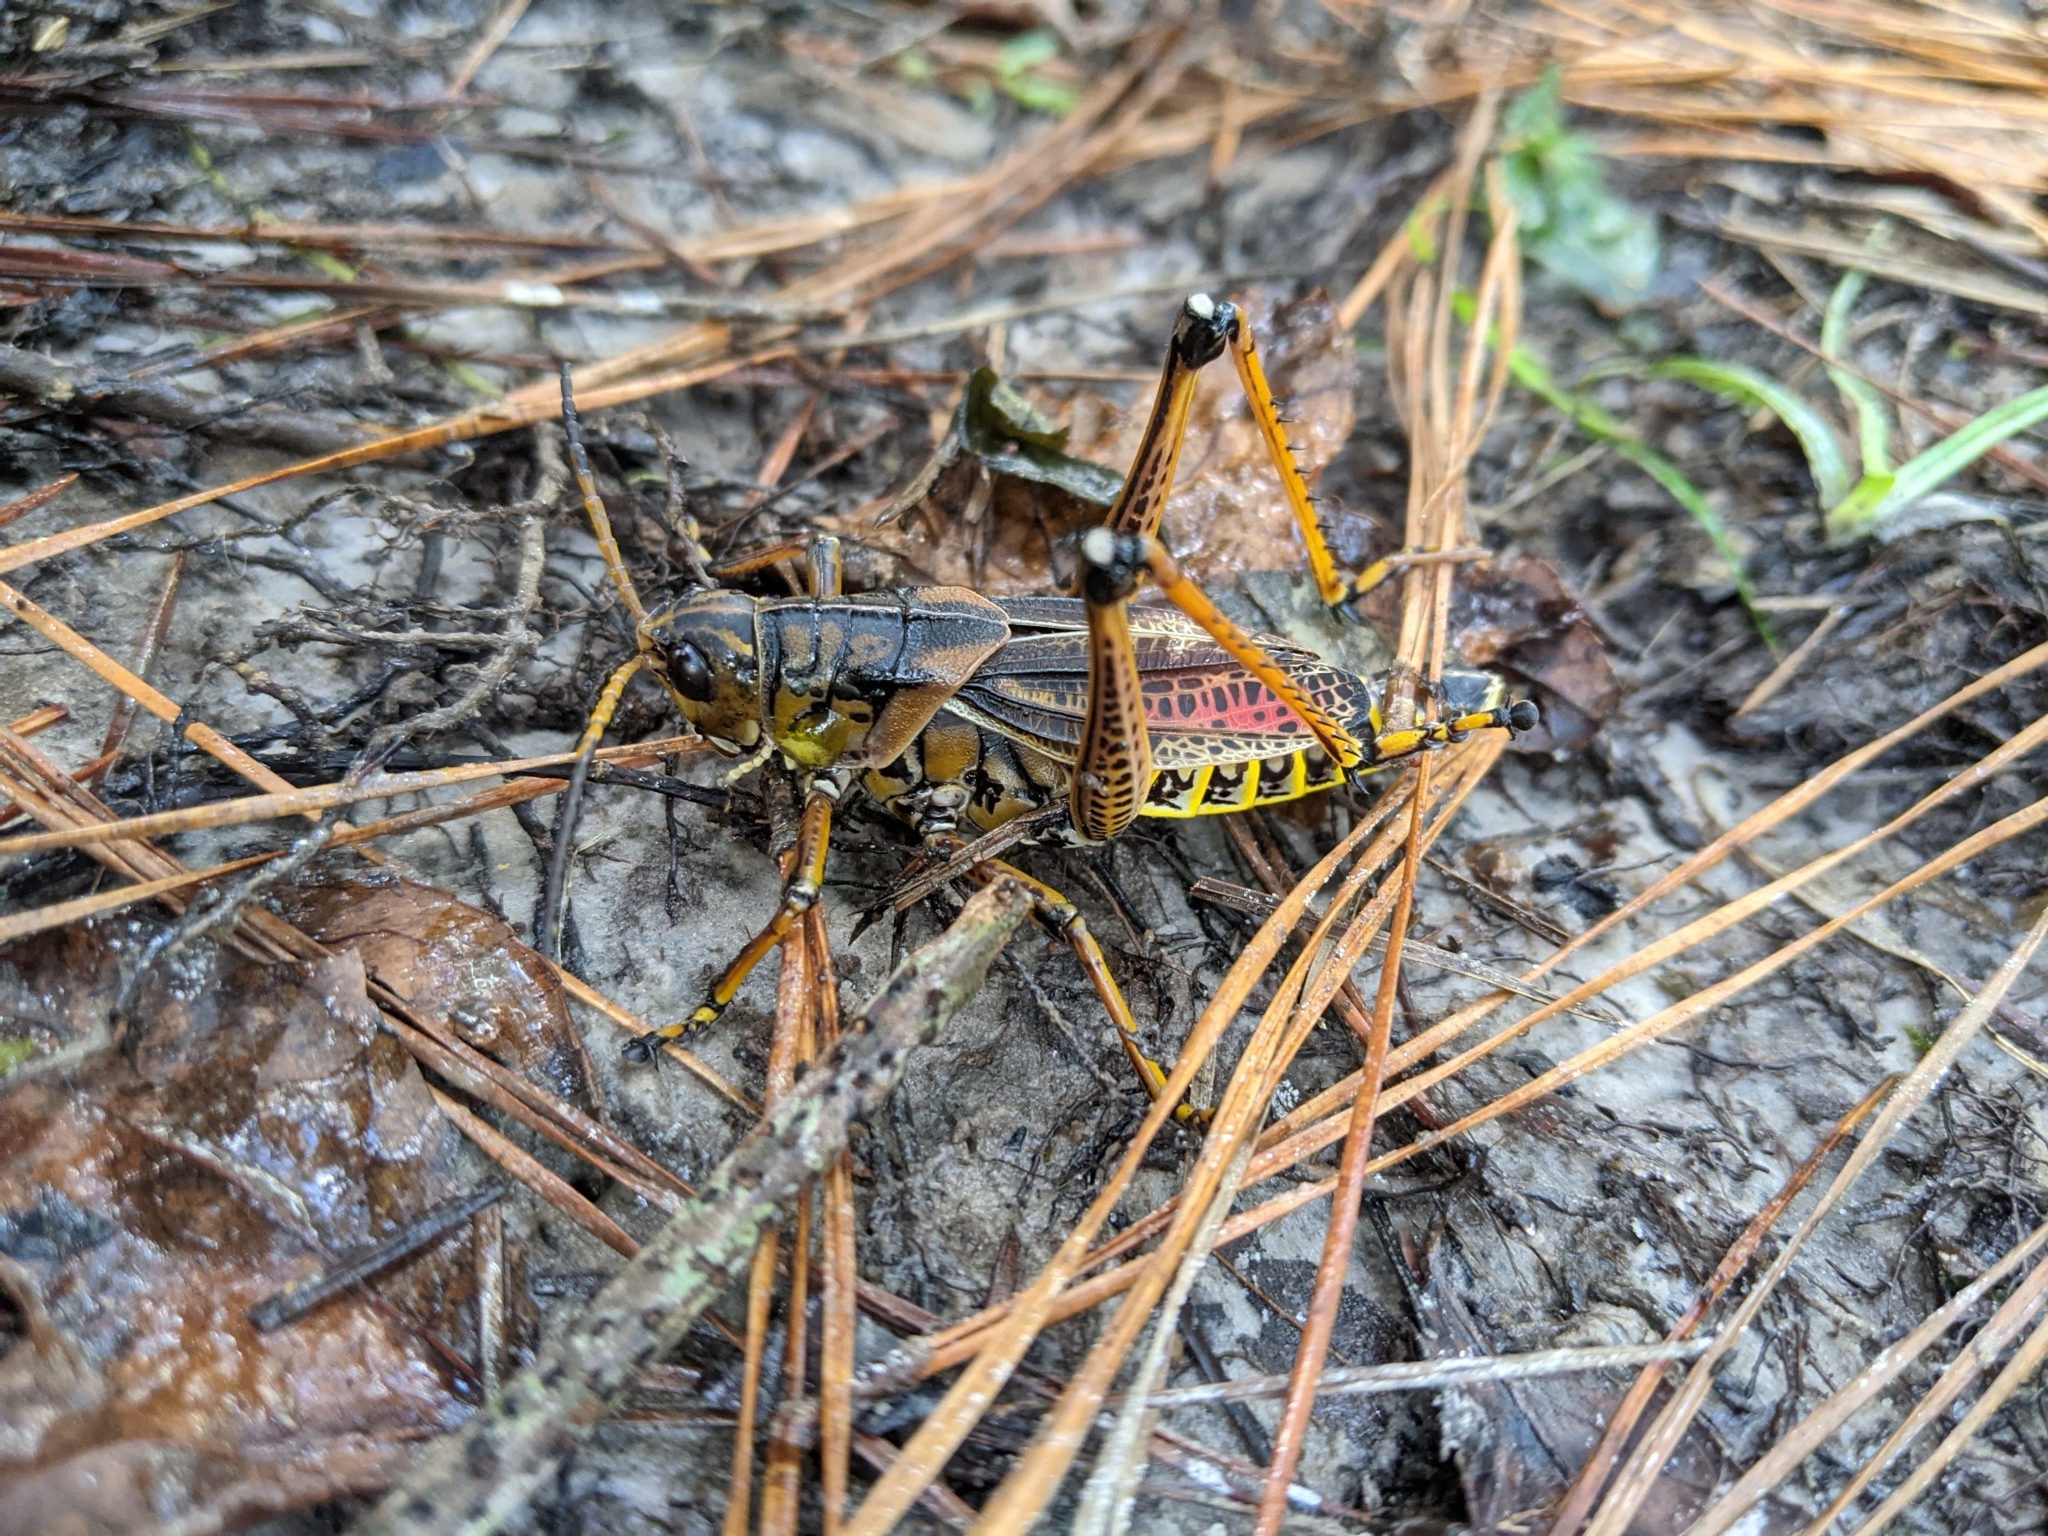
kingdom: Animalia
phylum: Arthropoda
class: Insecta
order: Orthoptera
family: Romaleidae
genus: Romalea
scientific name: Romalea microptera
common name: Eastern lubber grasshopper
